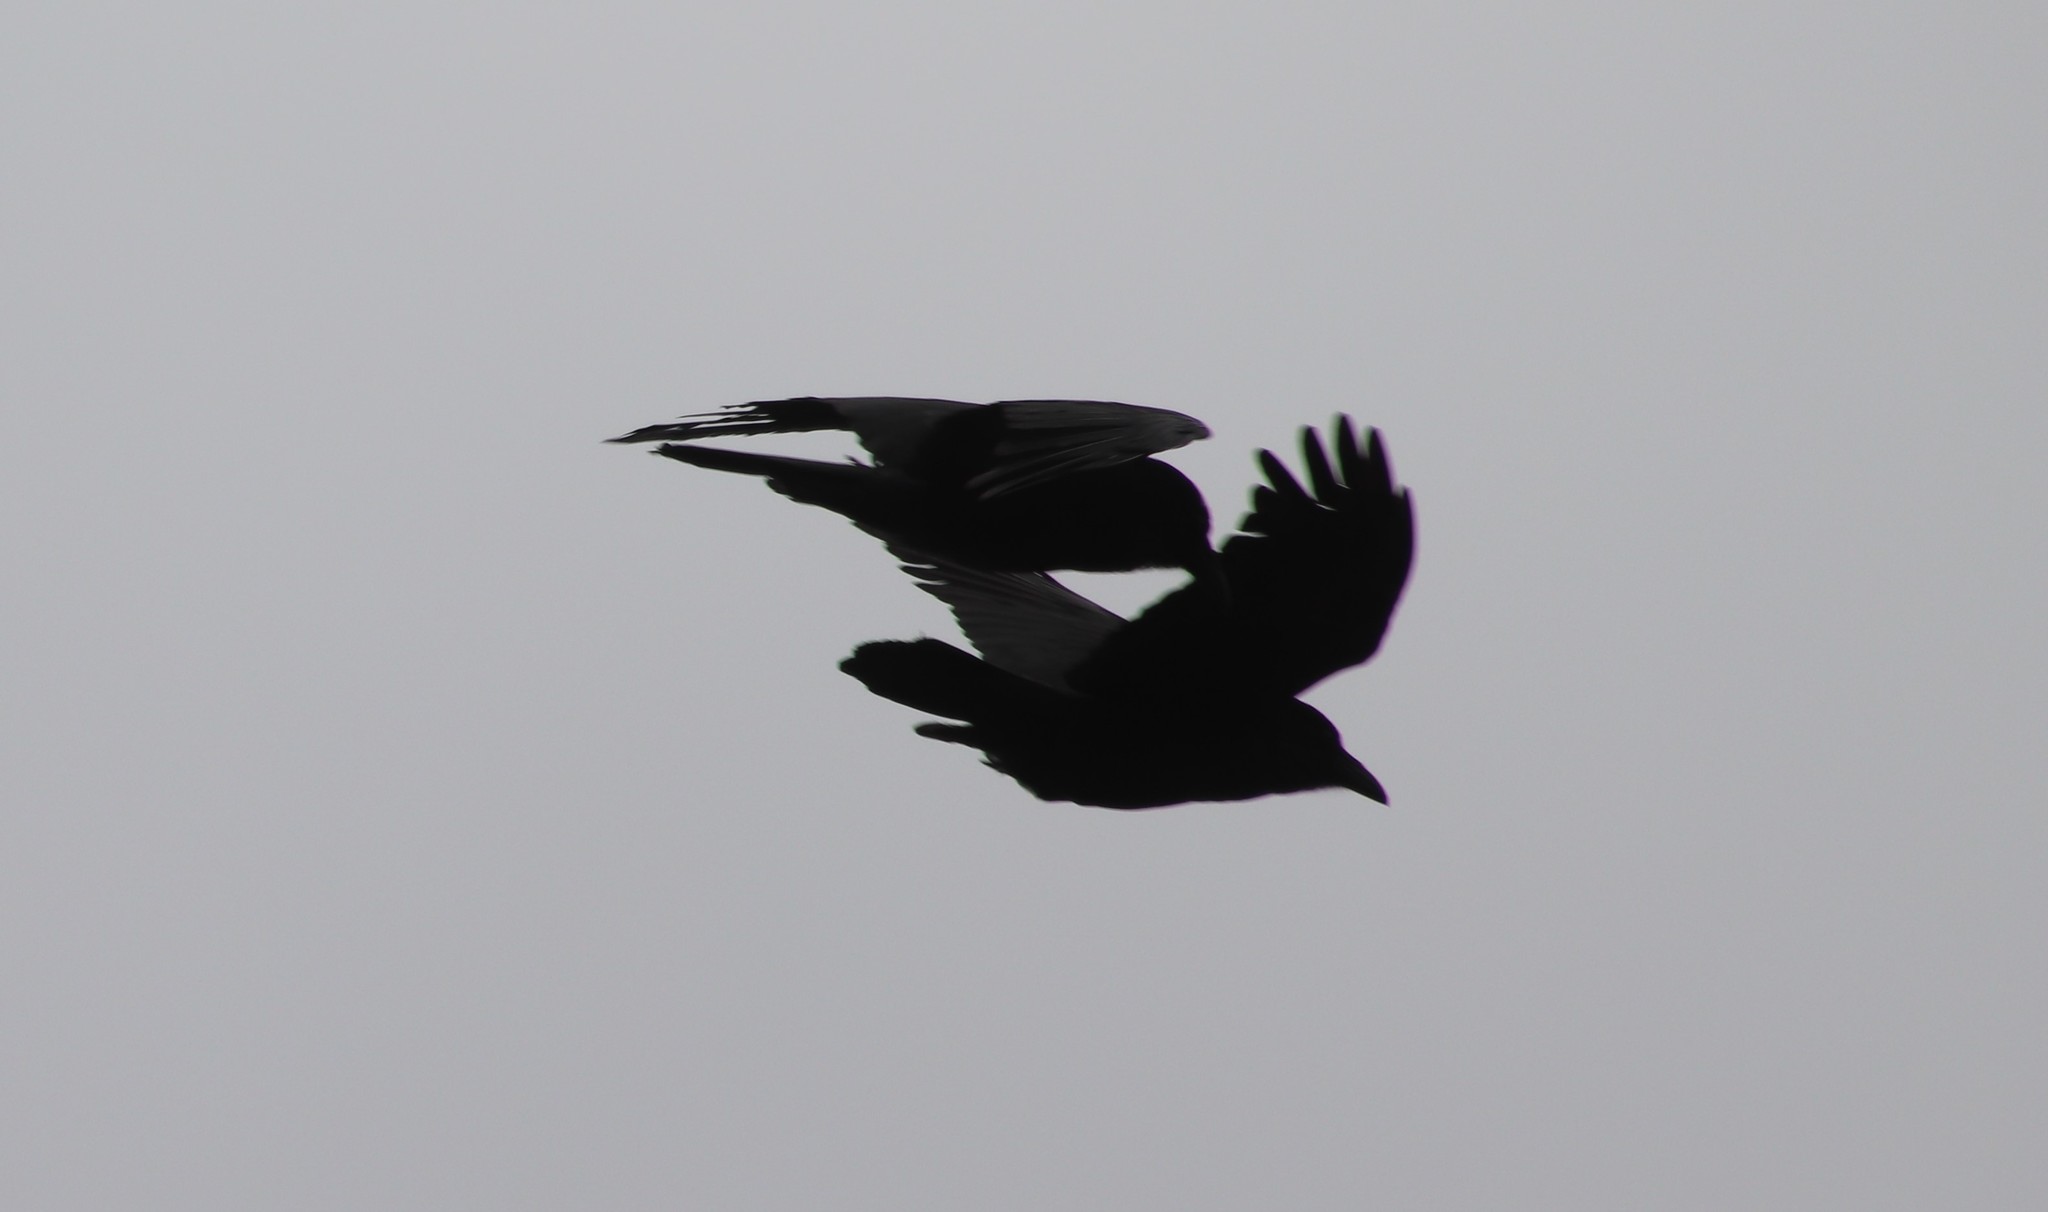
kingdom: Animalia
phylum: Chordata
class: Aves
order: Passeriformes
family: Corvidae
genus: Corvus
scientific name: Corvus corax
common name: Common raven
